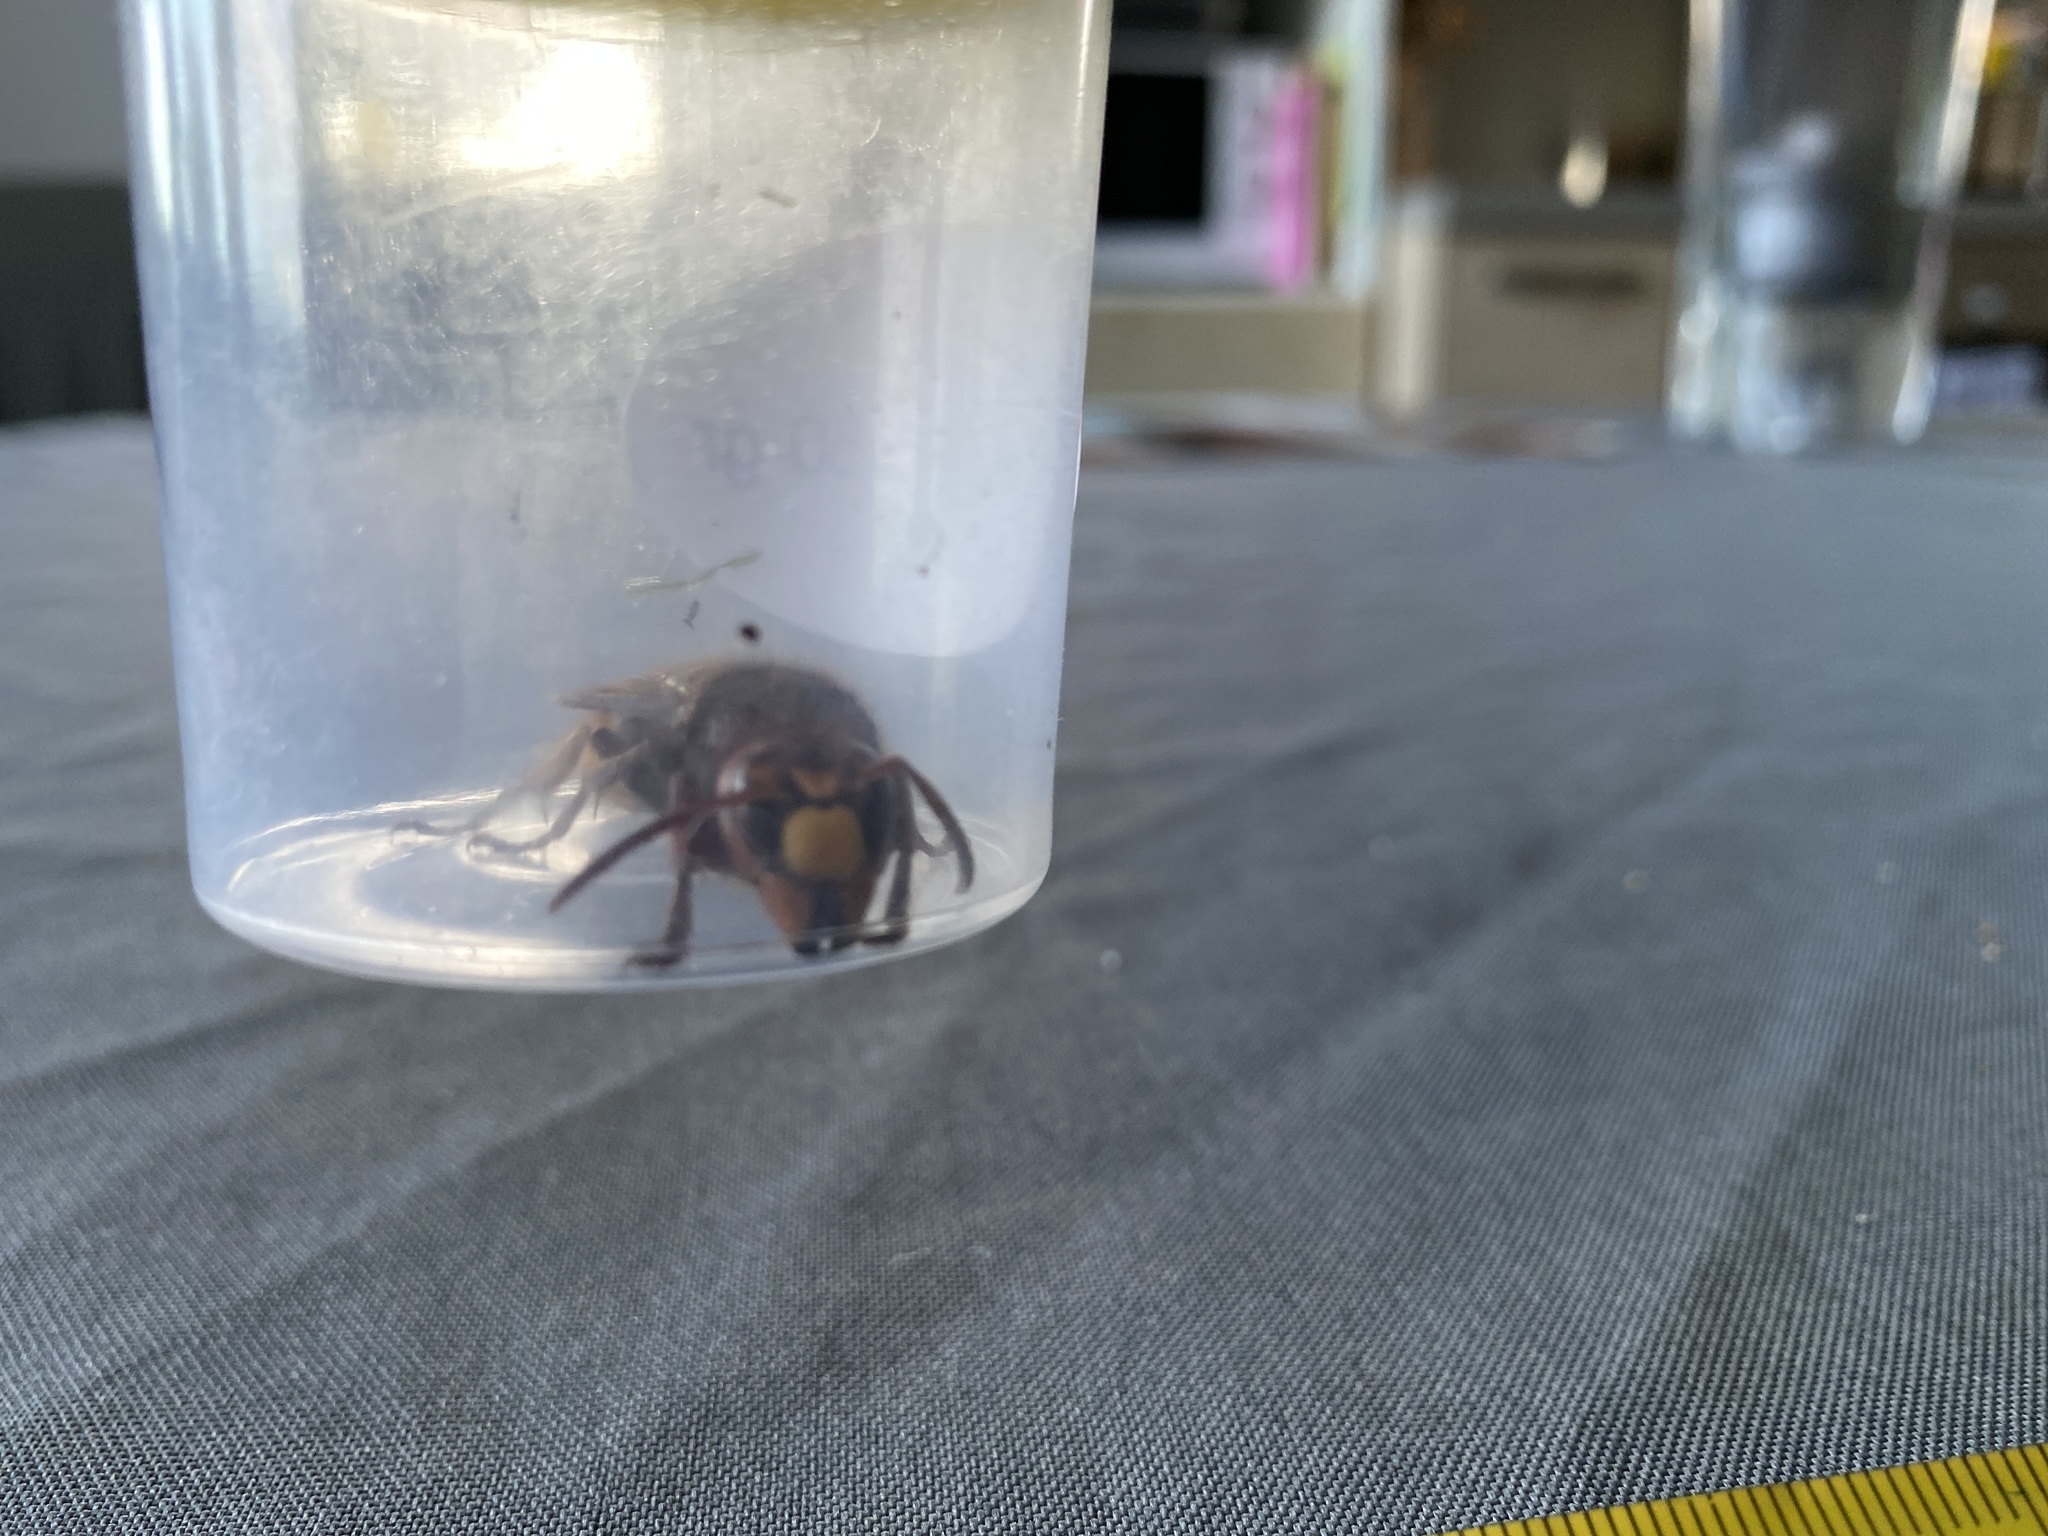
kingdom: Animalia
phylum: Arthropoda
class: Insecta
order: Hymenoptera
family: Vespidae
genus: Vespa
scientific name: Vespa crabro
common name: Hornet
